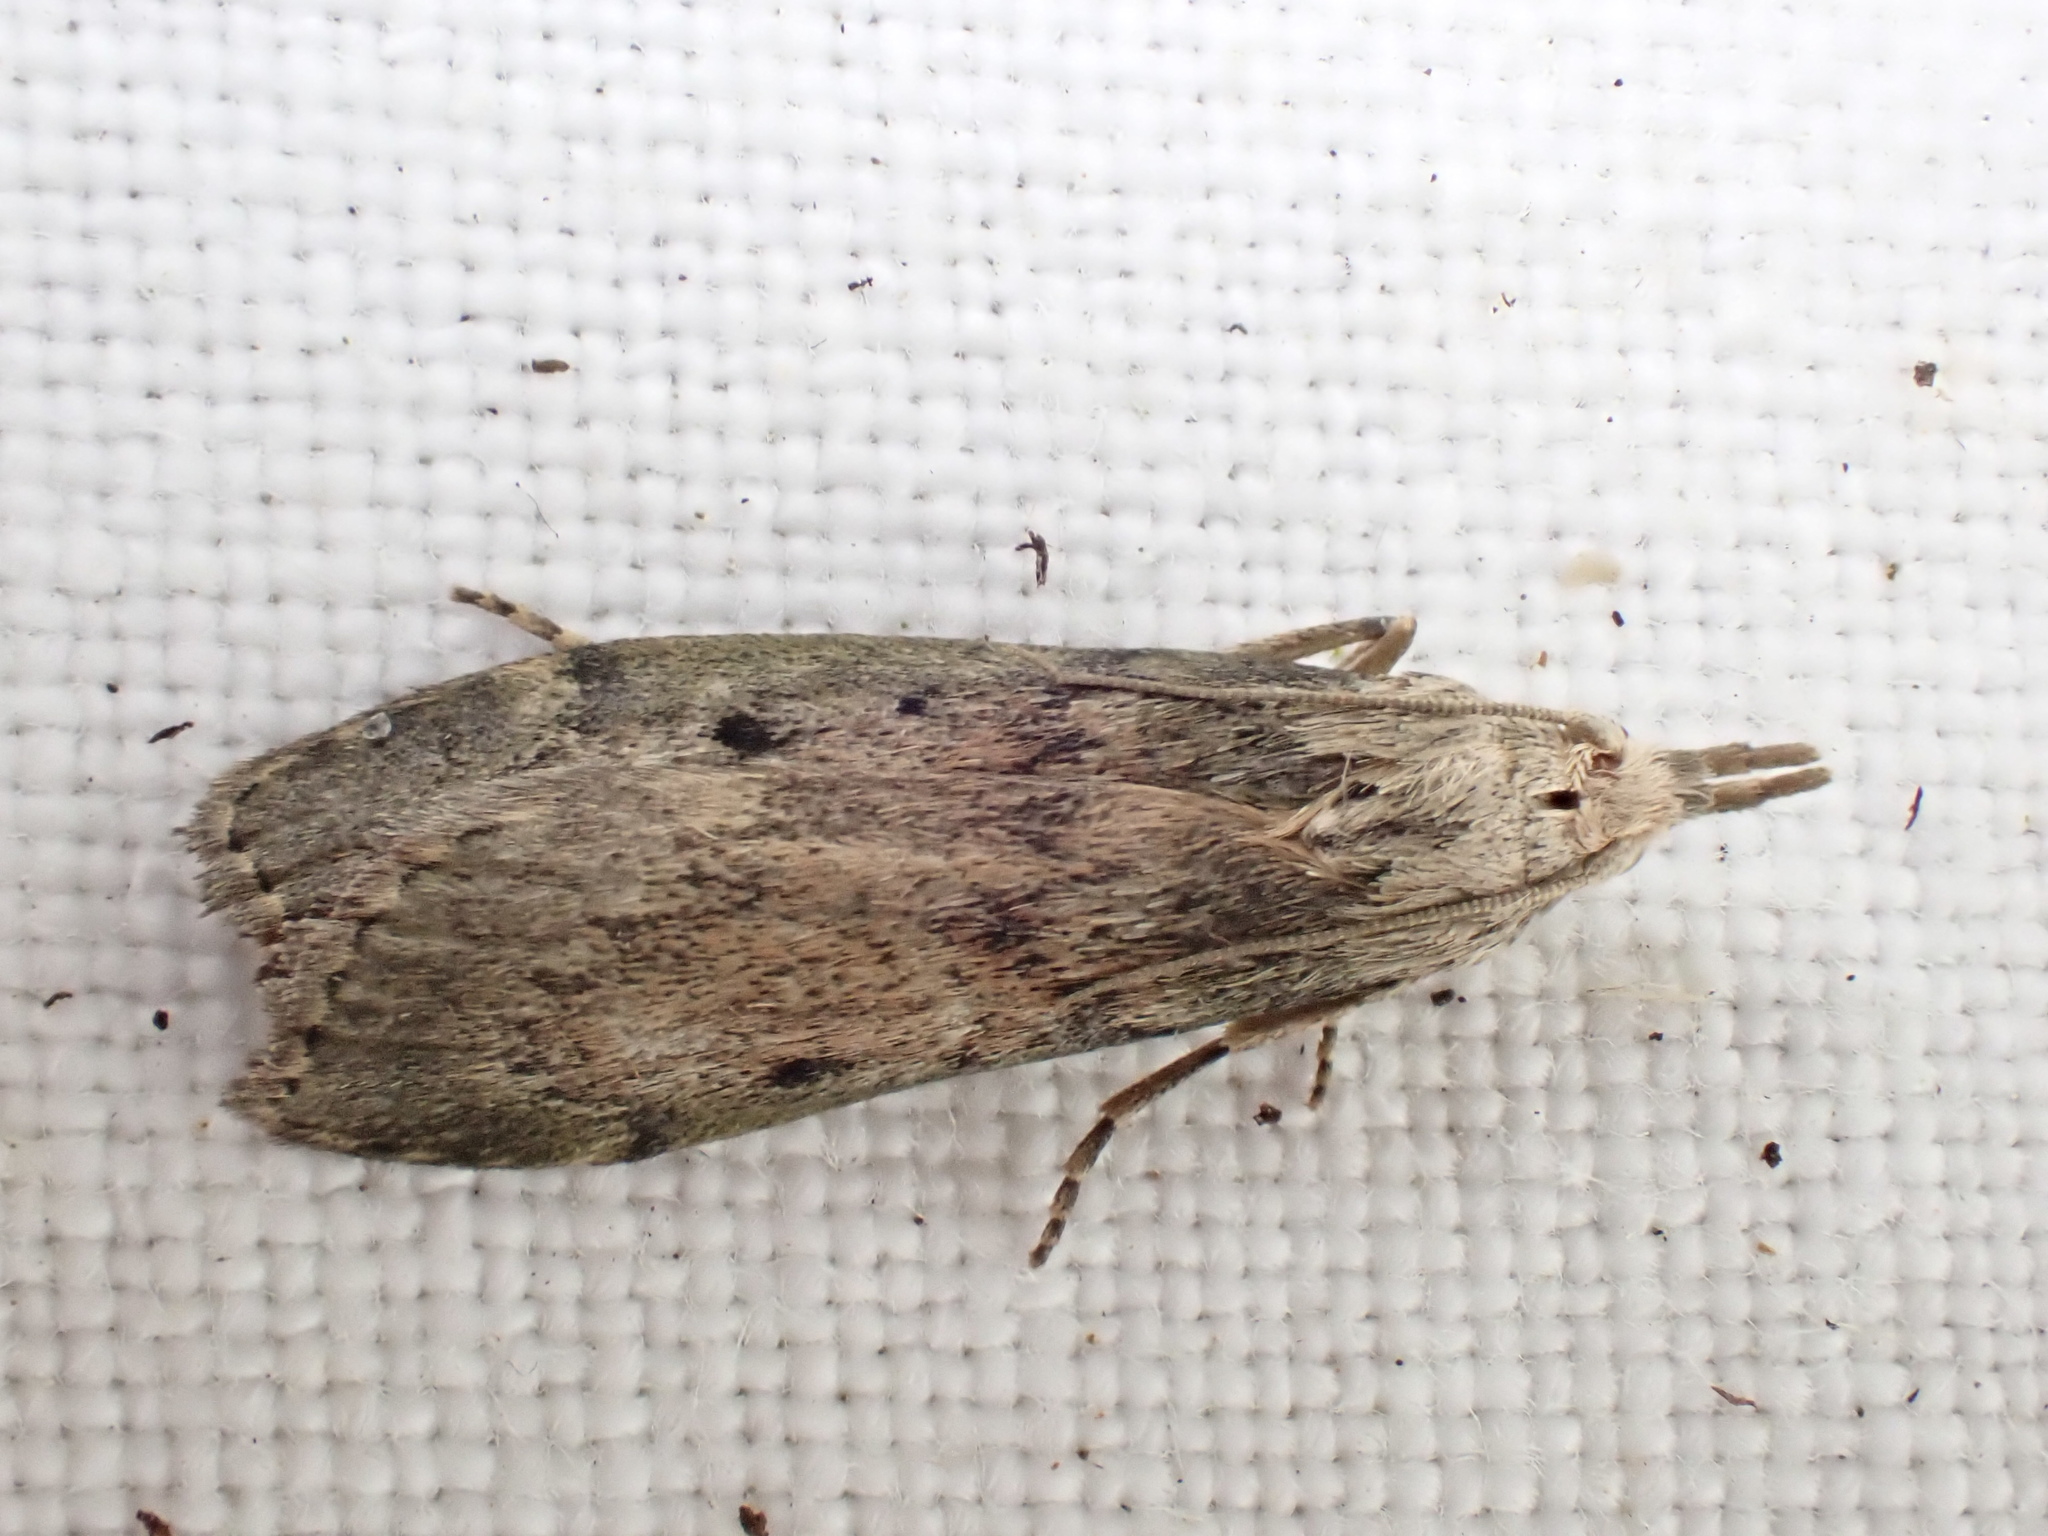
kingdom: Animalia
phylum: Arthropoda
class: Insecta
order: Lepidoptera
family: Pyralidae
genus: Aphomia
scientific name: Aphomia sociella
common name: Bee moth
